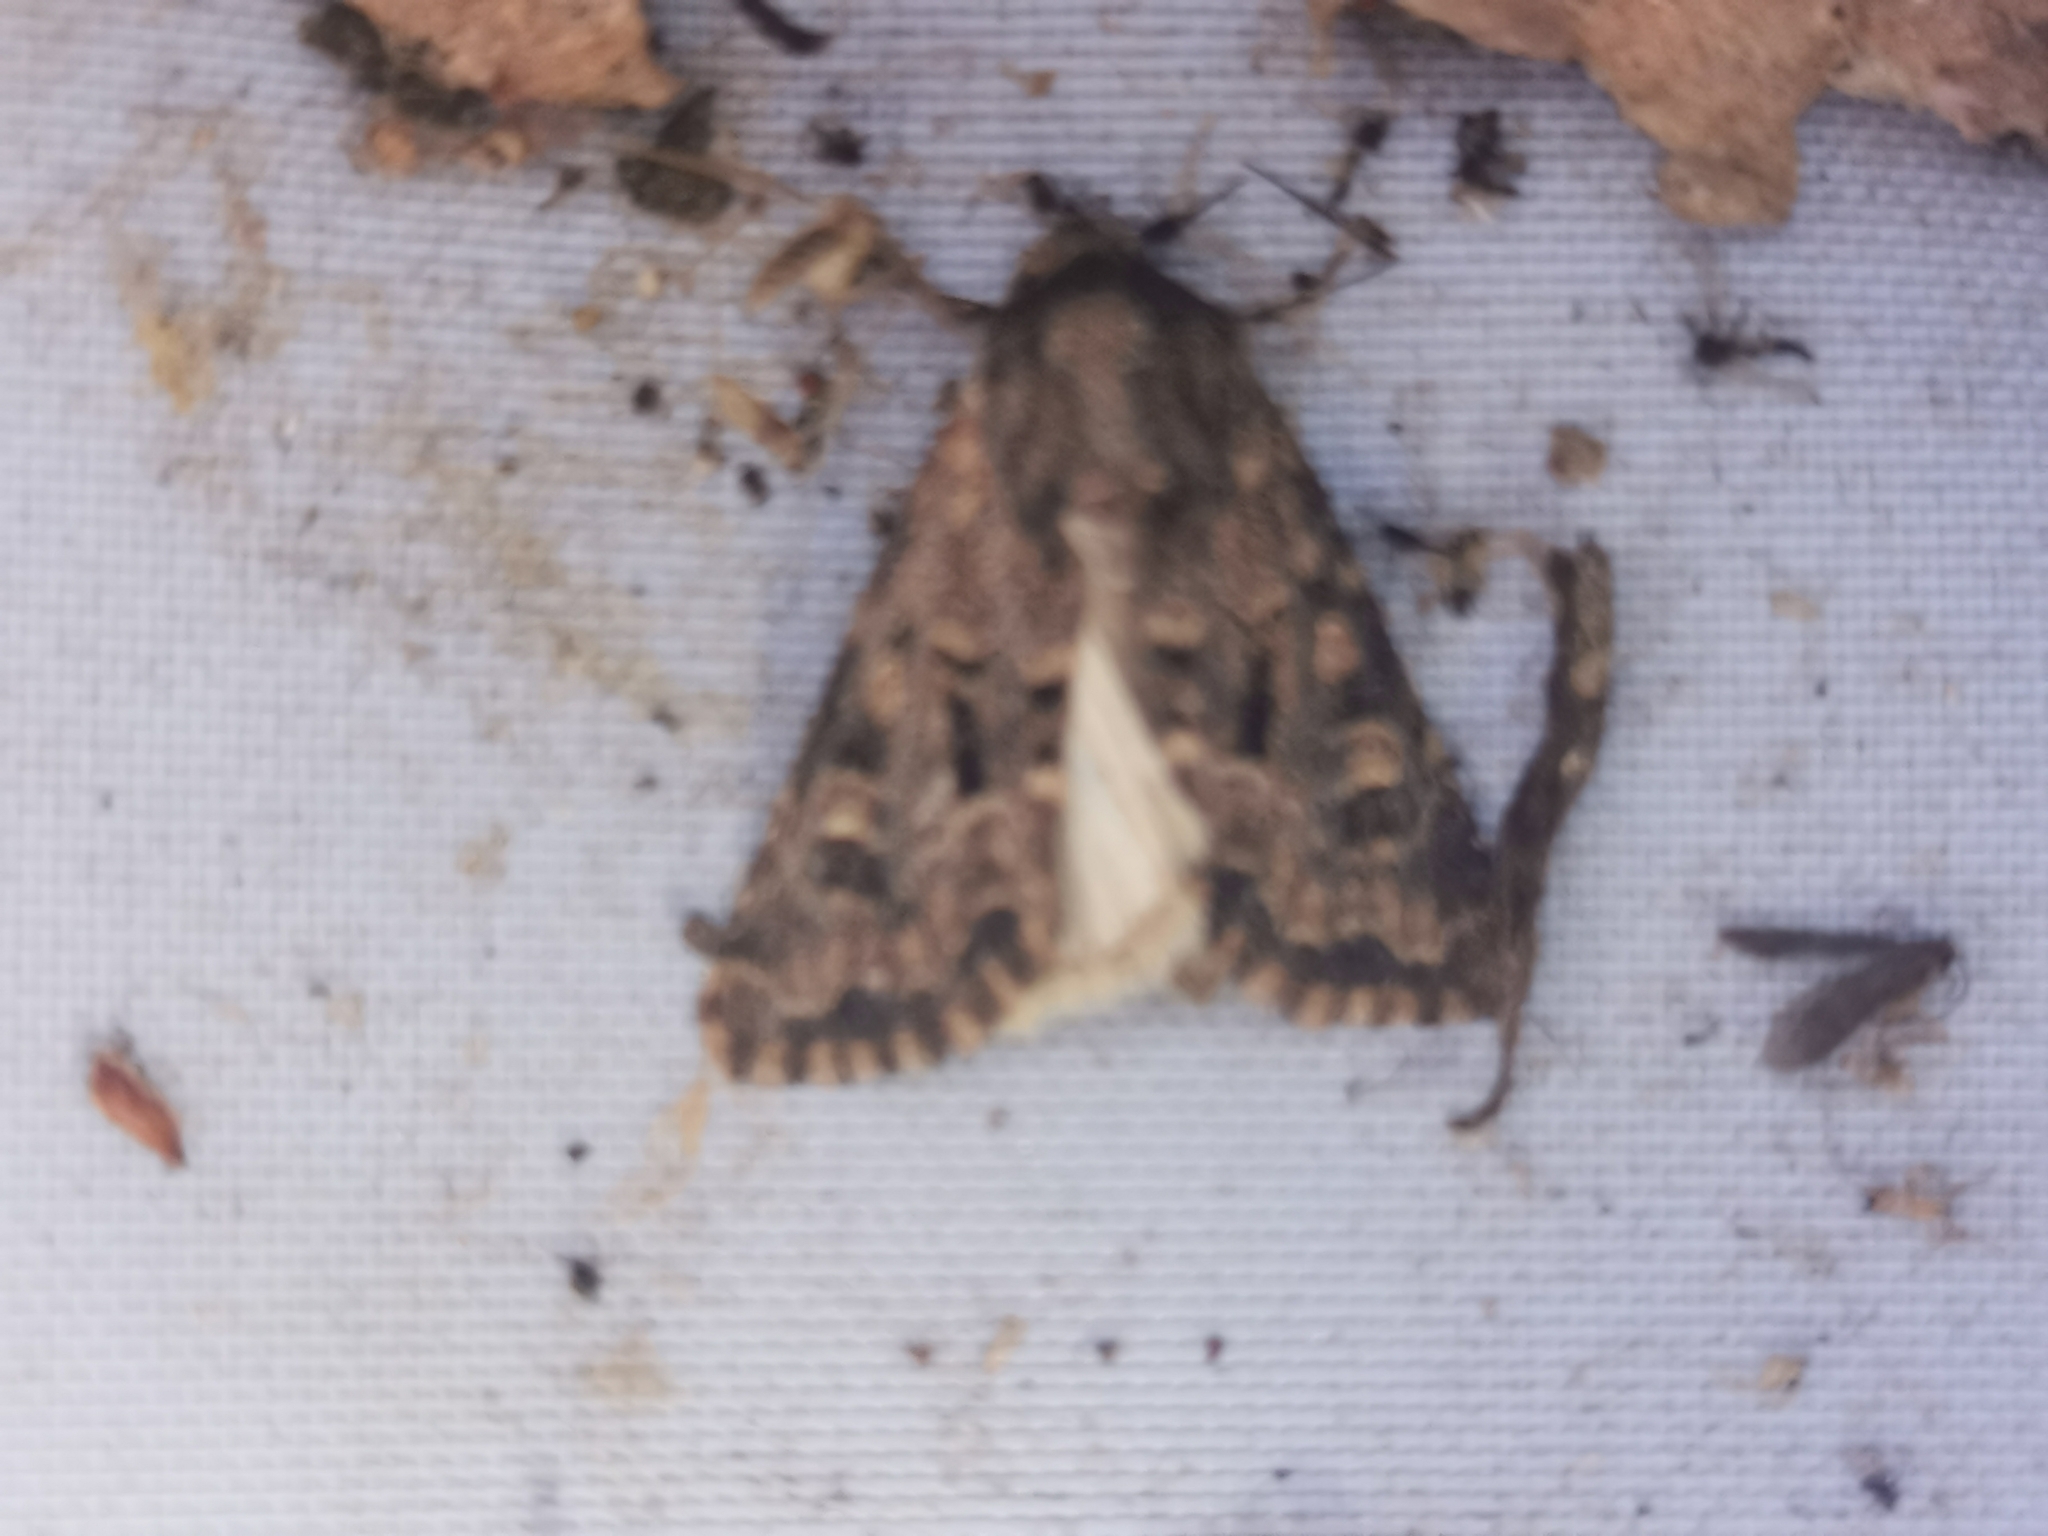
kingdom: Animalia
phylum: Arthropoda
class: Insecta
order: Lepidoptera
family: Noctuidae
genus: Luperina
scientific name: Luperina testacea
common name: Flounced rustic
